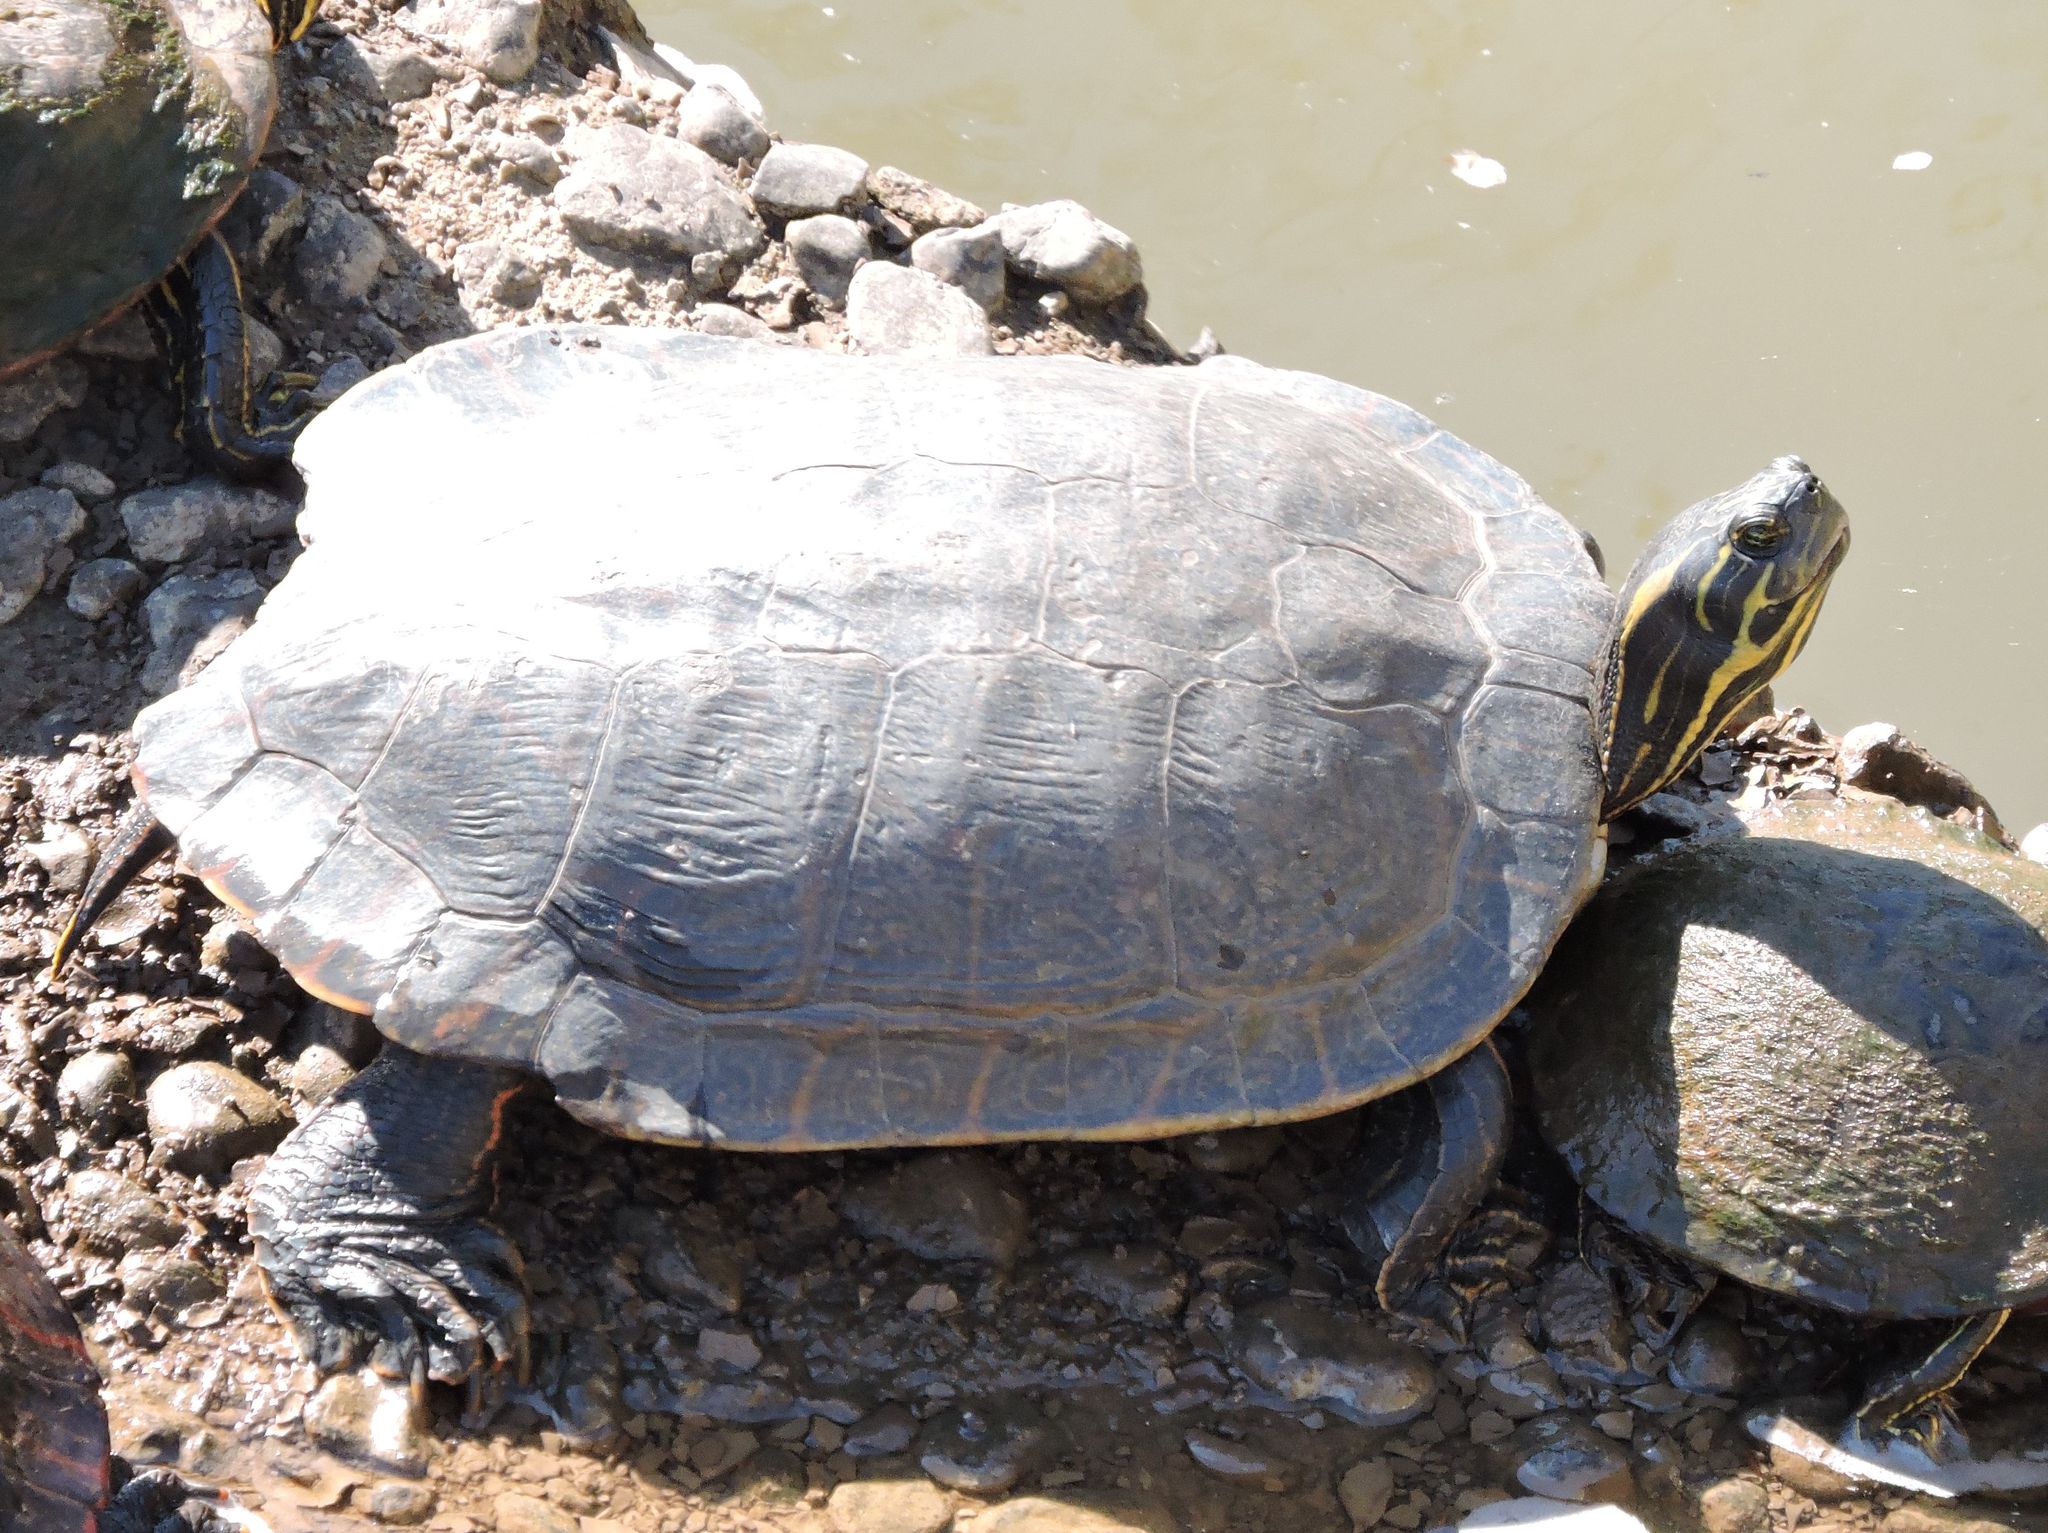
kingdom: Animalia
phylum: Chordata
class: Testudines
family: Emydidae
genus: Pseudemys
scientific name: Pseudemys concinna
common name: Eastern river cooter
